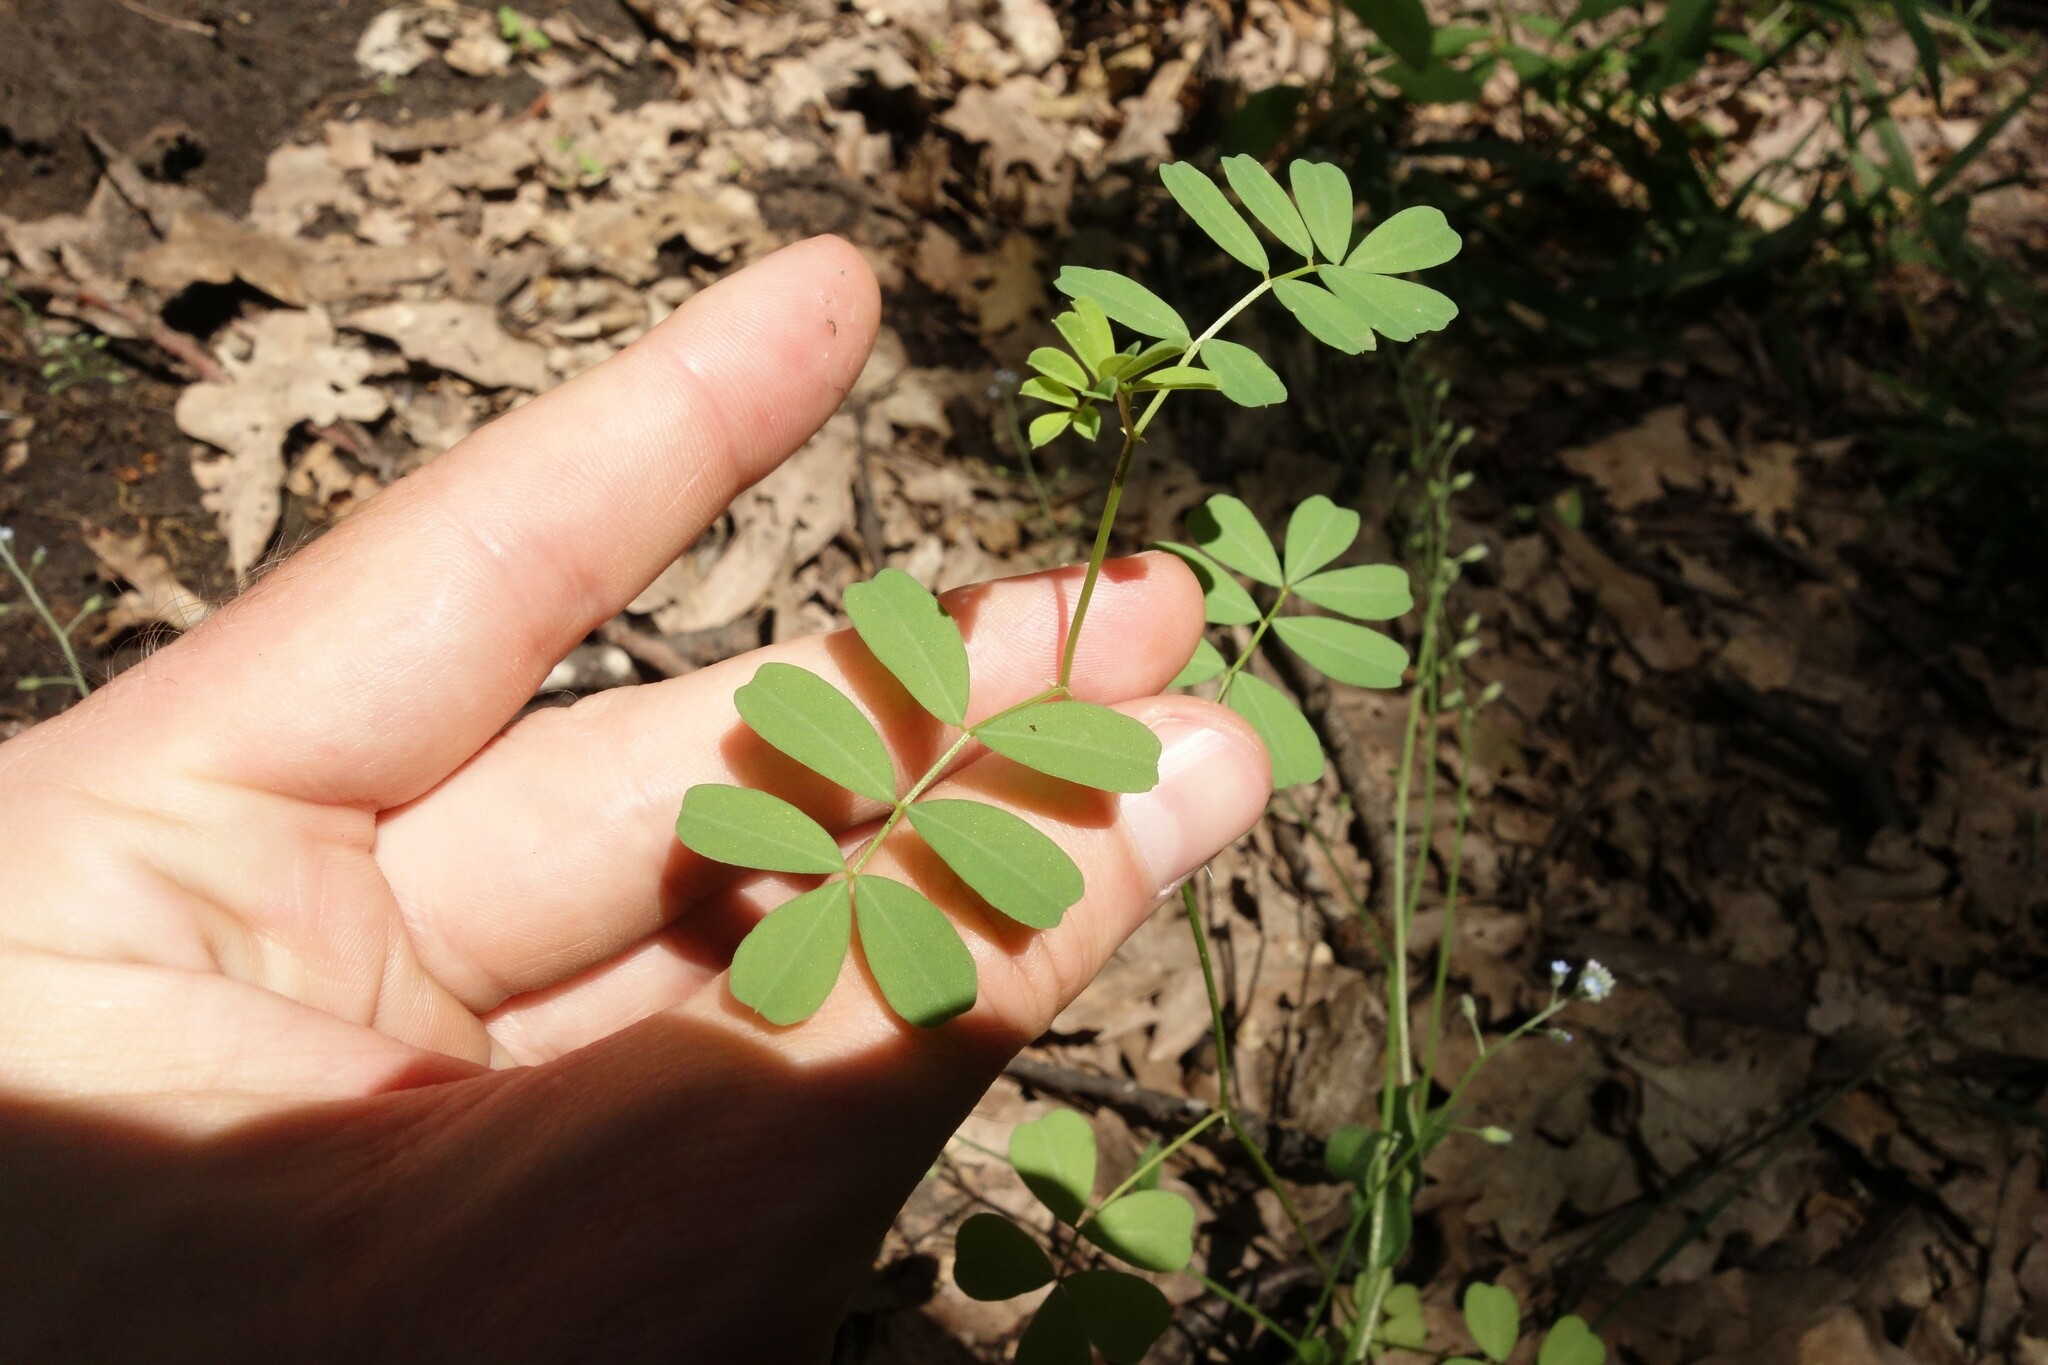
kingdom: Plantae
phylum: Tracheophyta
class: Magnoliopsida
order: Fabales
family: Fabaceae
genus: Coronilla
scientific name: Coronilla varia
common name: Crownvetch
